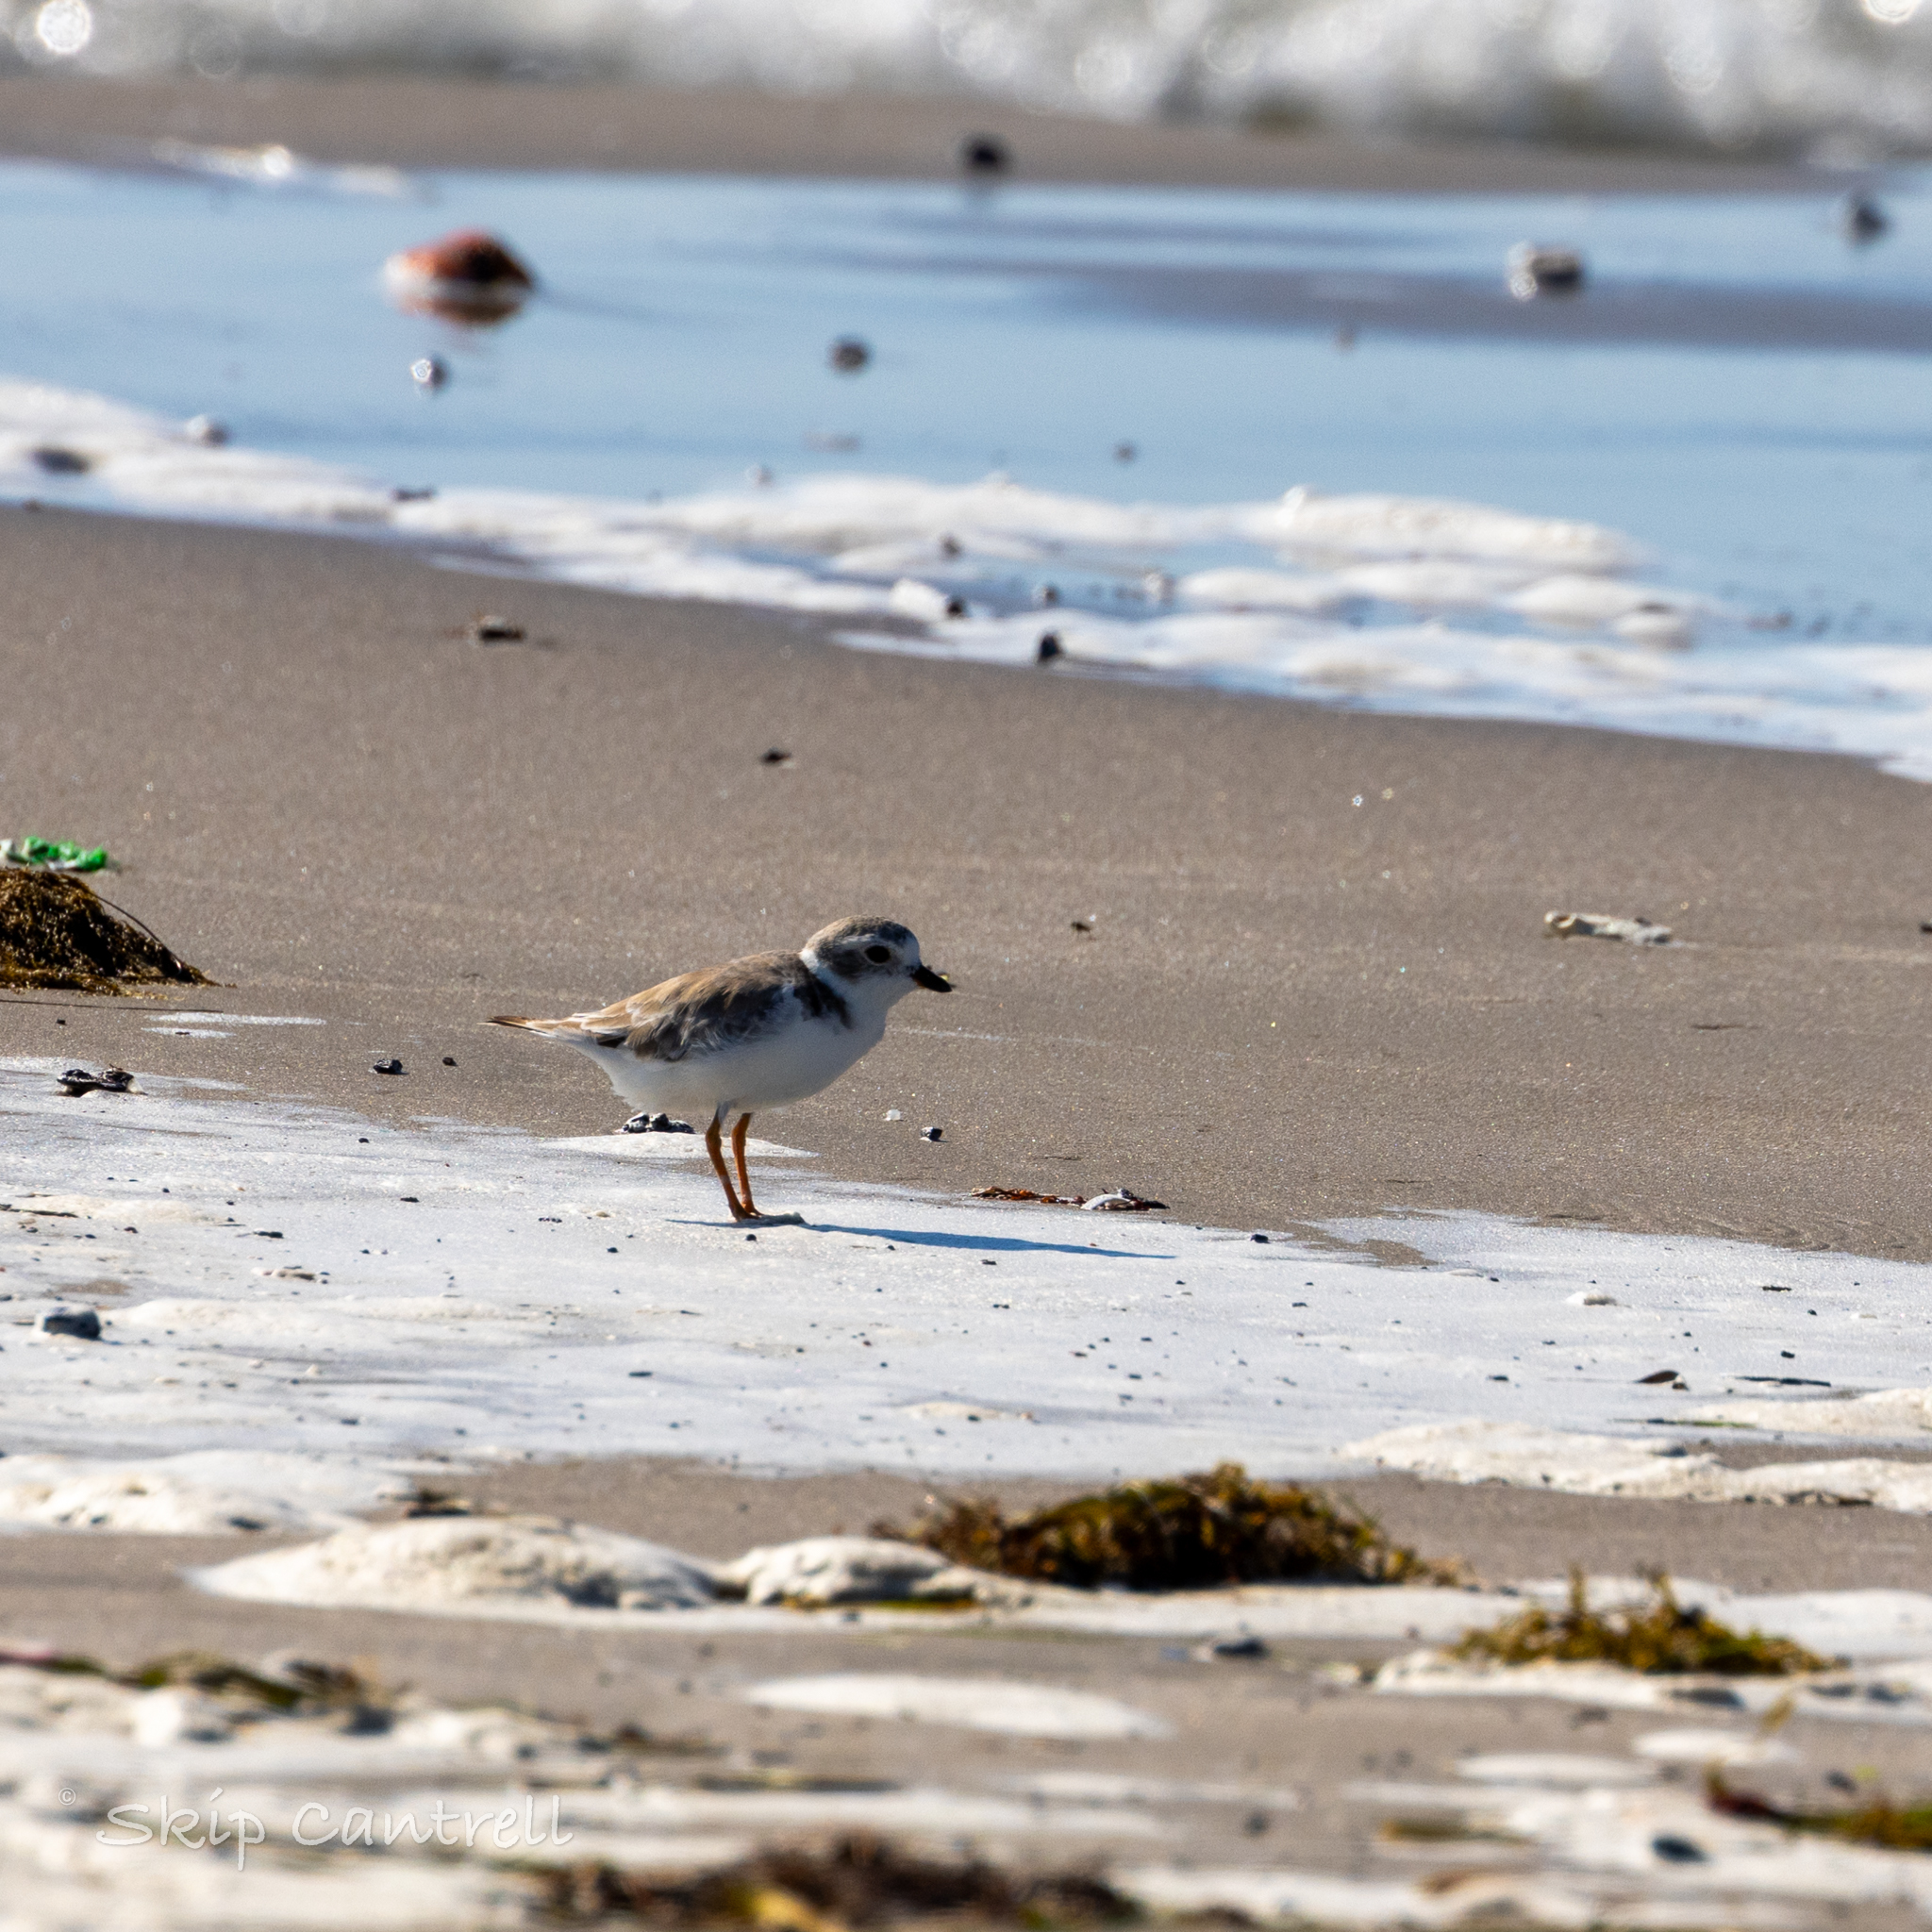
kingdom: Animalia
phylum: Chordata
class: Aves
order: Charadriiformes
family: Charadriidae
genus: Charadrius
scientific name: Charadrius melodus
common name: Piping plover
